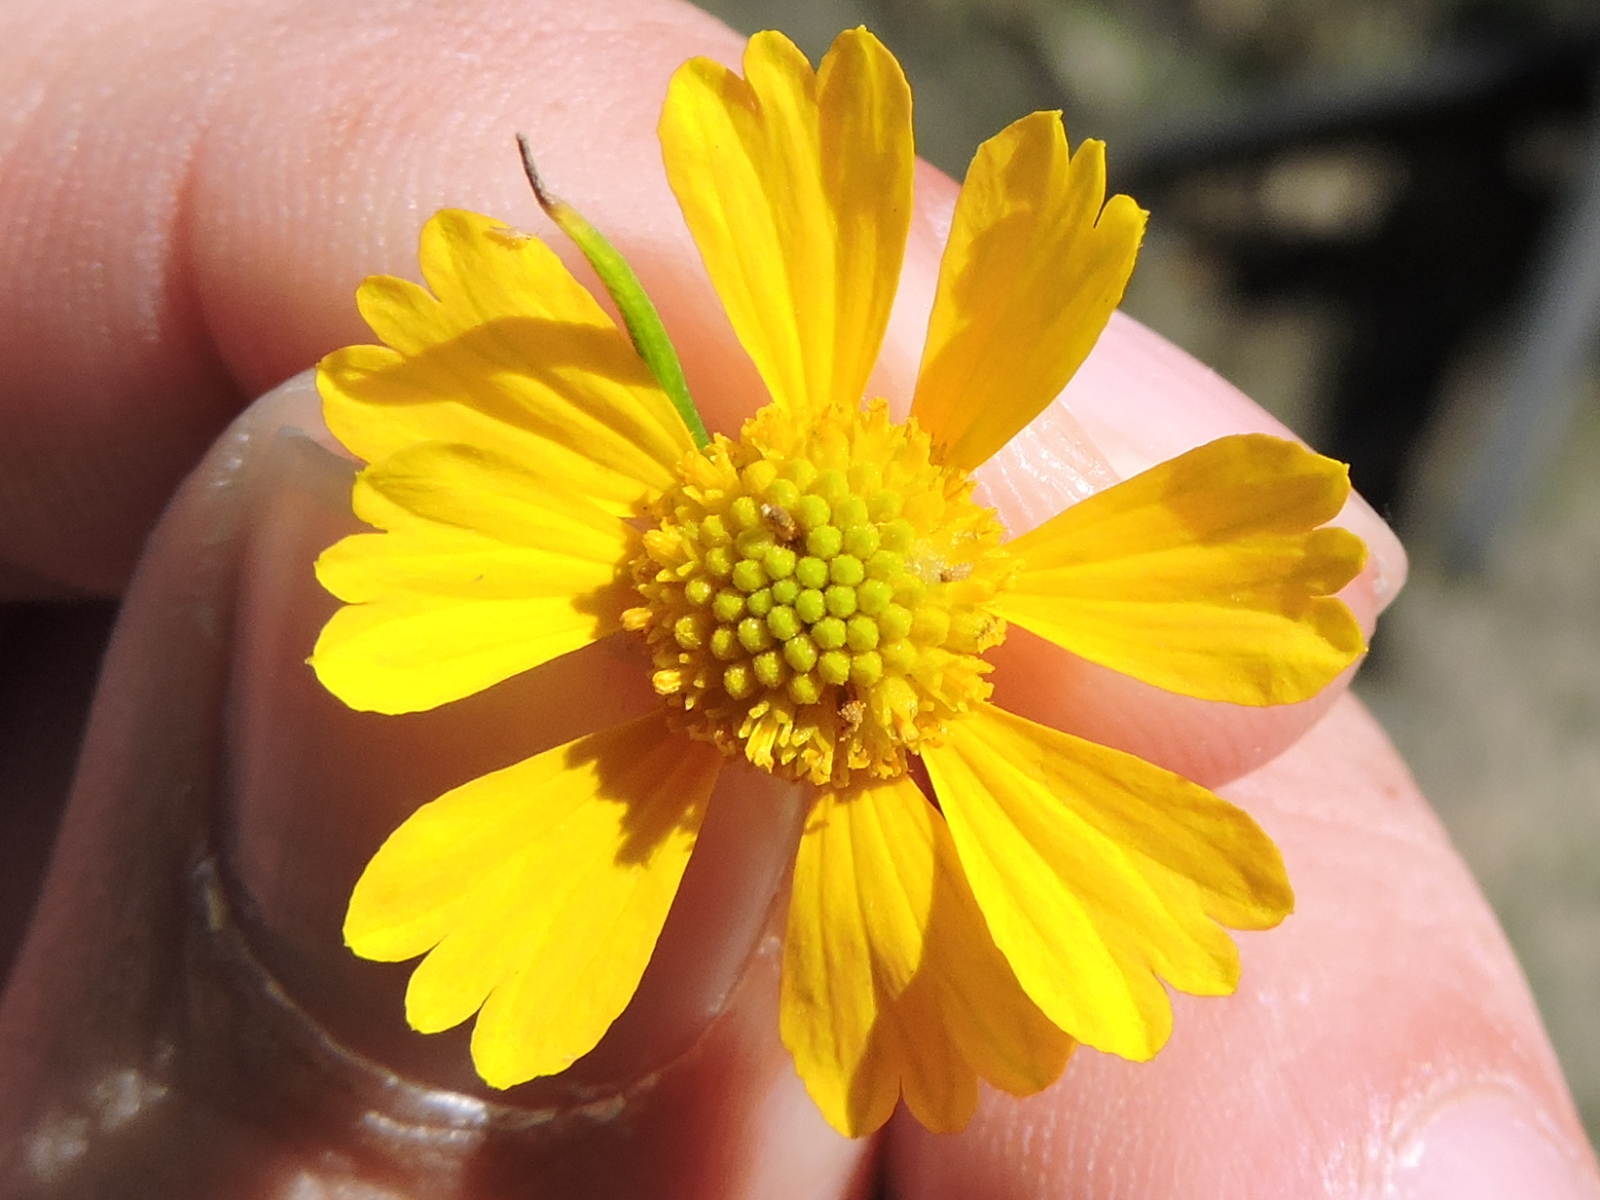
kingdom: Plantae
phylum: Tracheophyta
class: Magnoliopsida
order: Asterales
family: Asteraceae
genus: Helenium
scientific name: Helenium amarum
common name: Bitter sneezeweed
